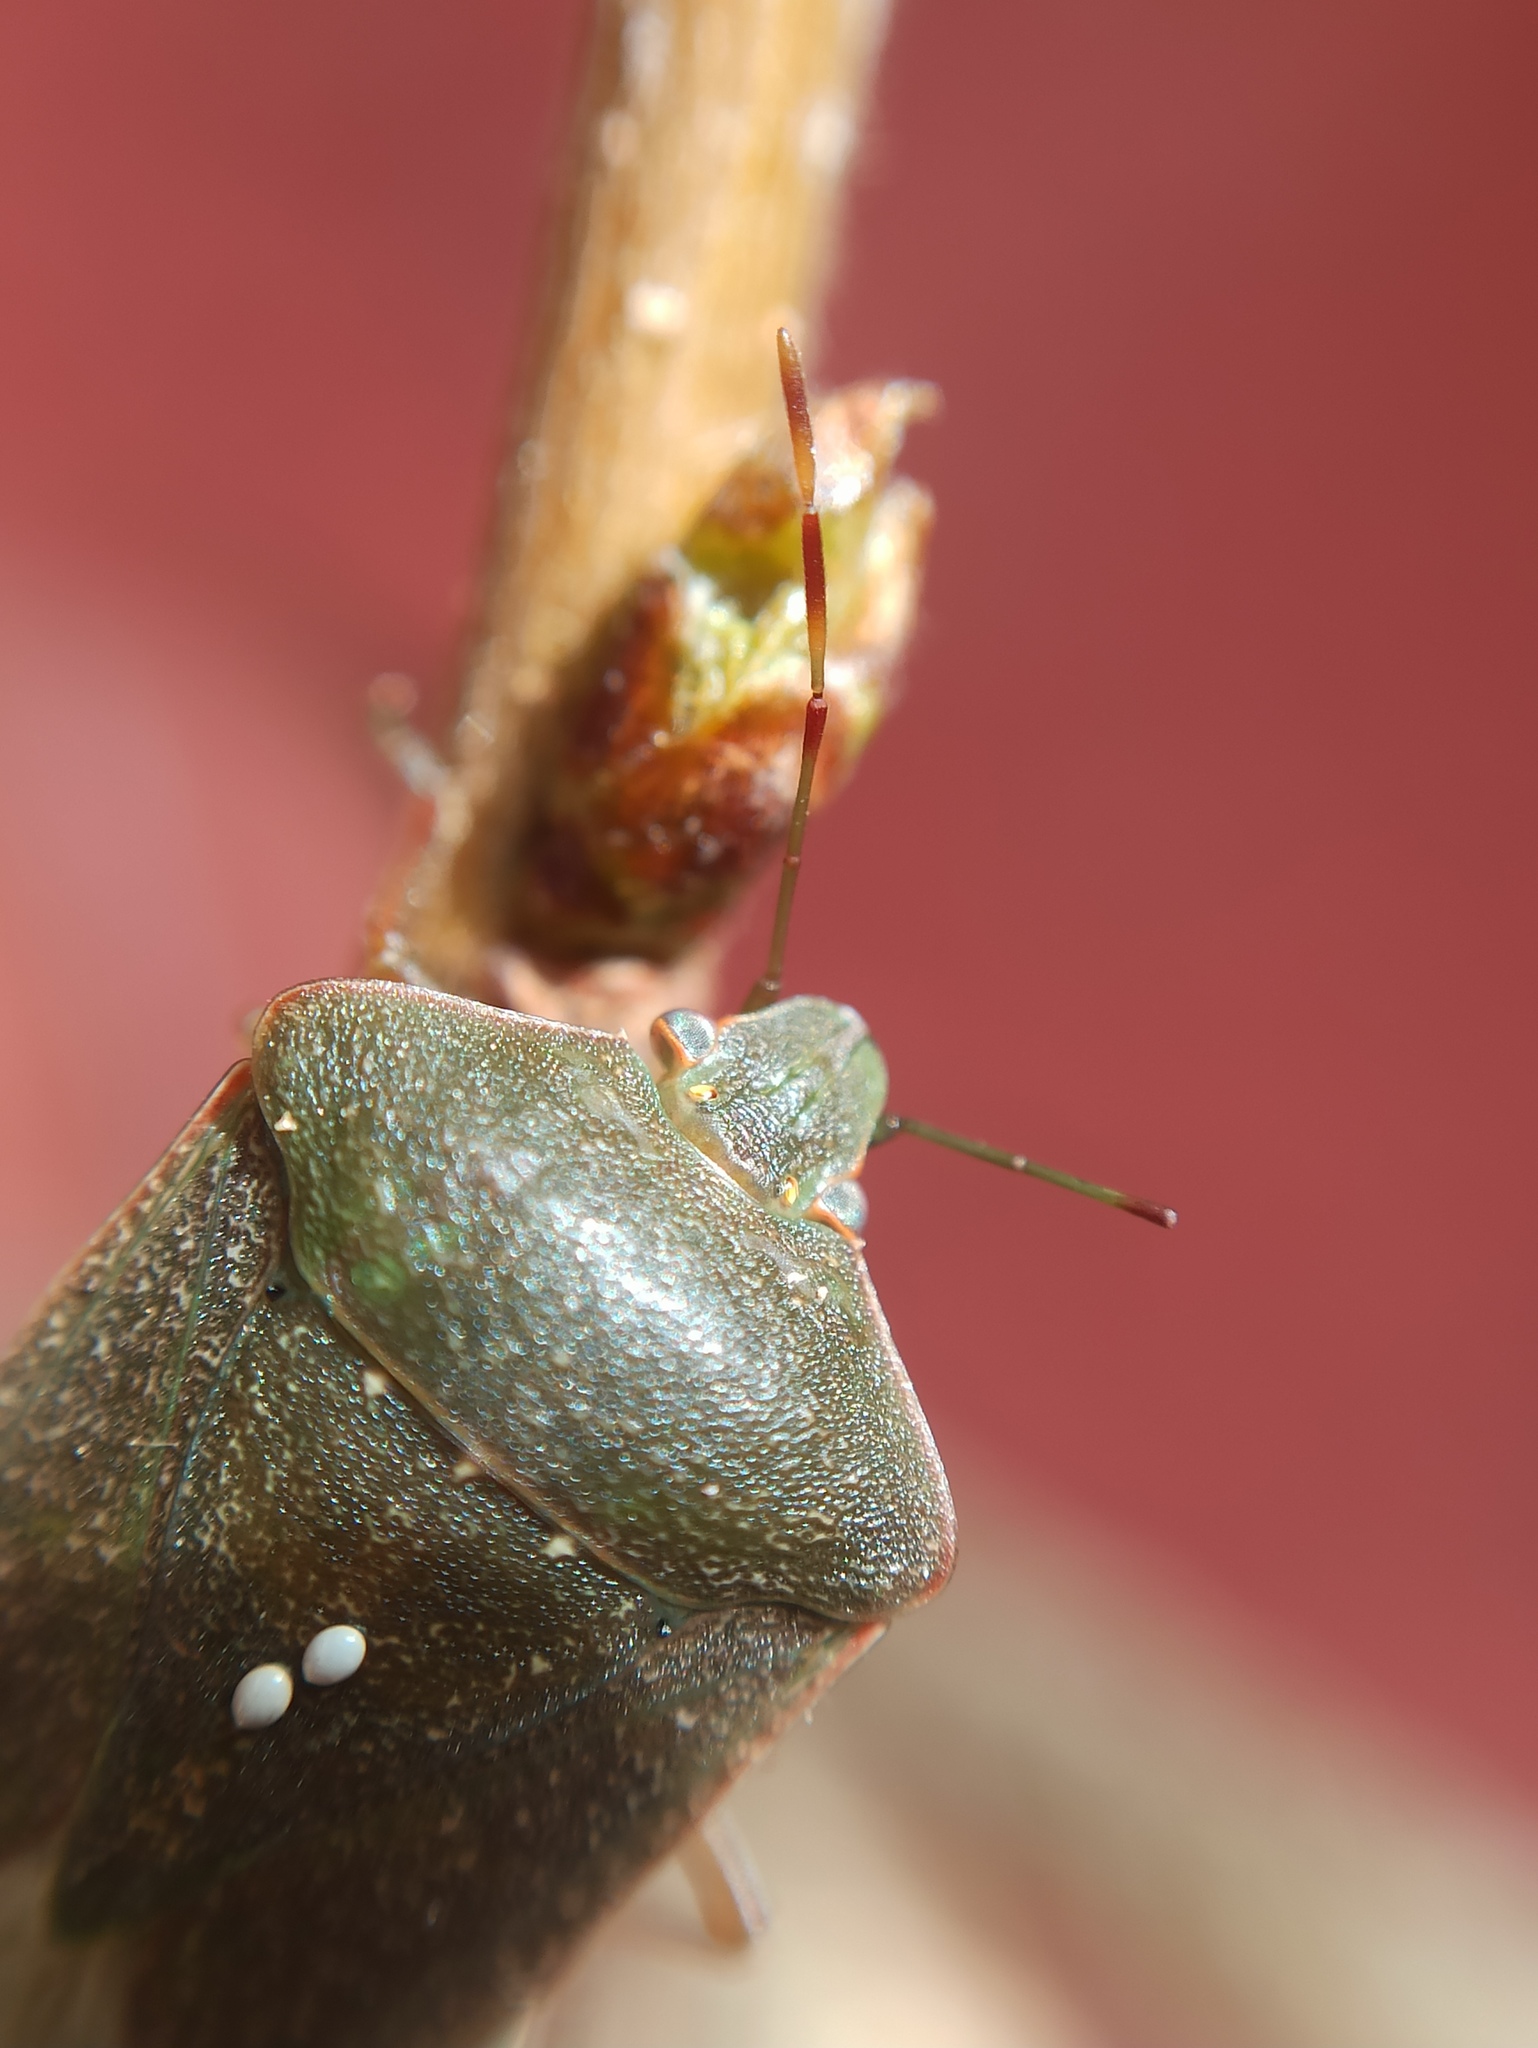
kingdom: Animalia
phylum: Arthropoda
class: Insecta
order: Hemiptera
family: Pentatomidae
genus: Nezara
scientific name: Nezara viridula
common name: Southern green stink bug
